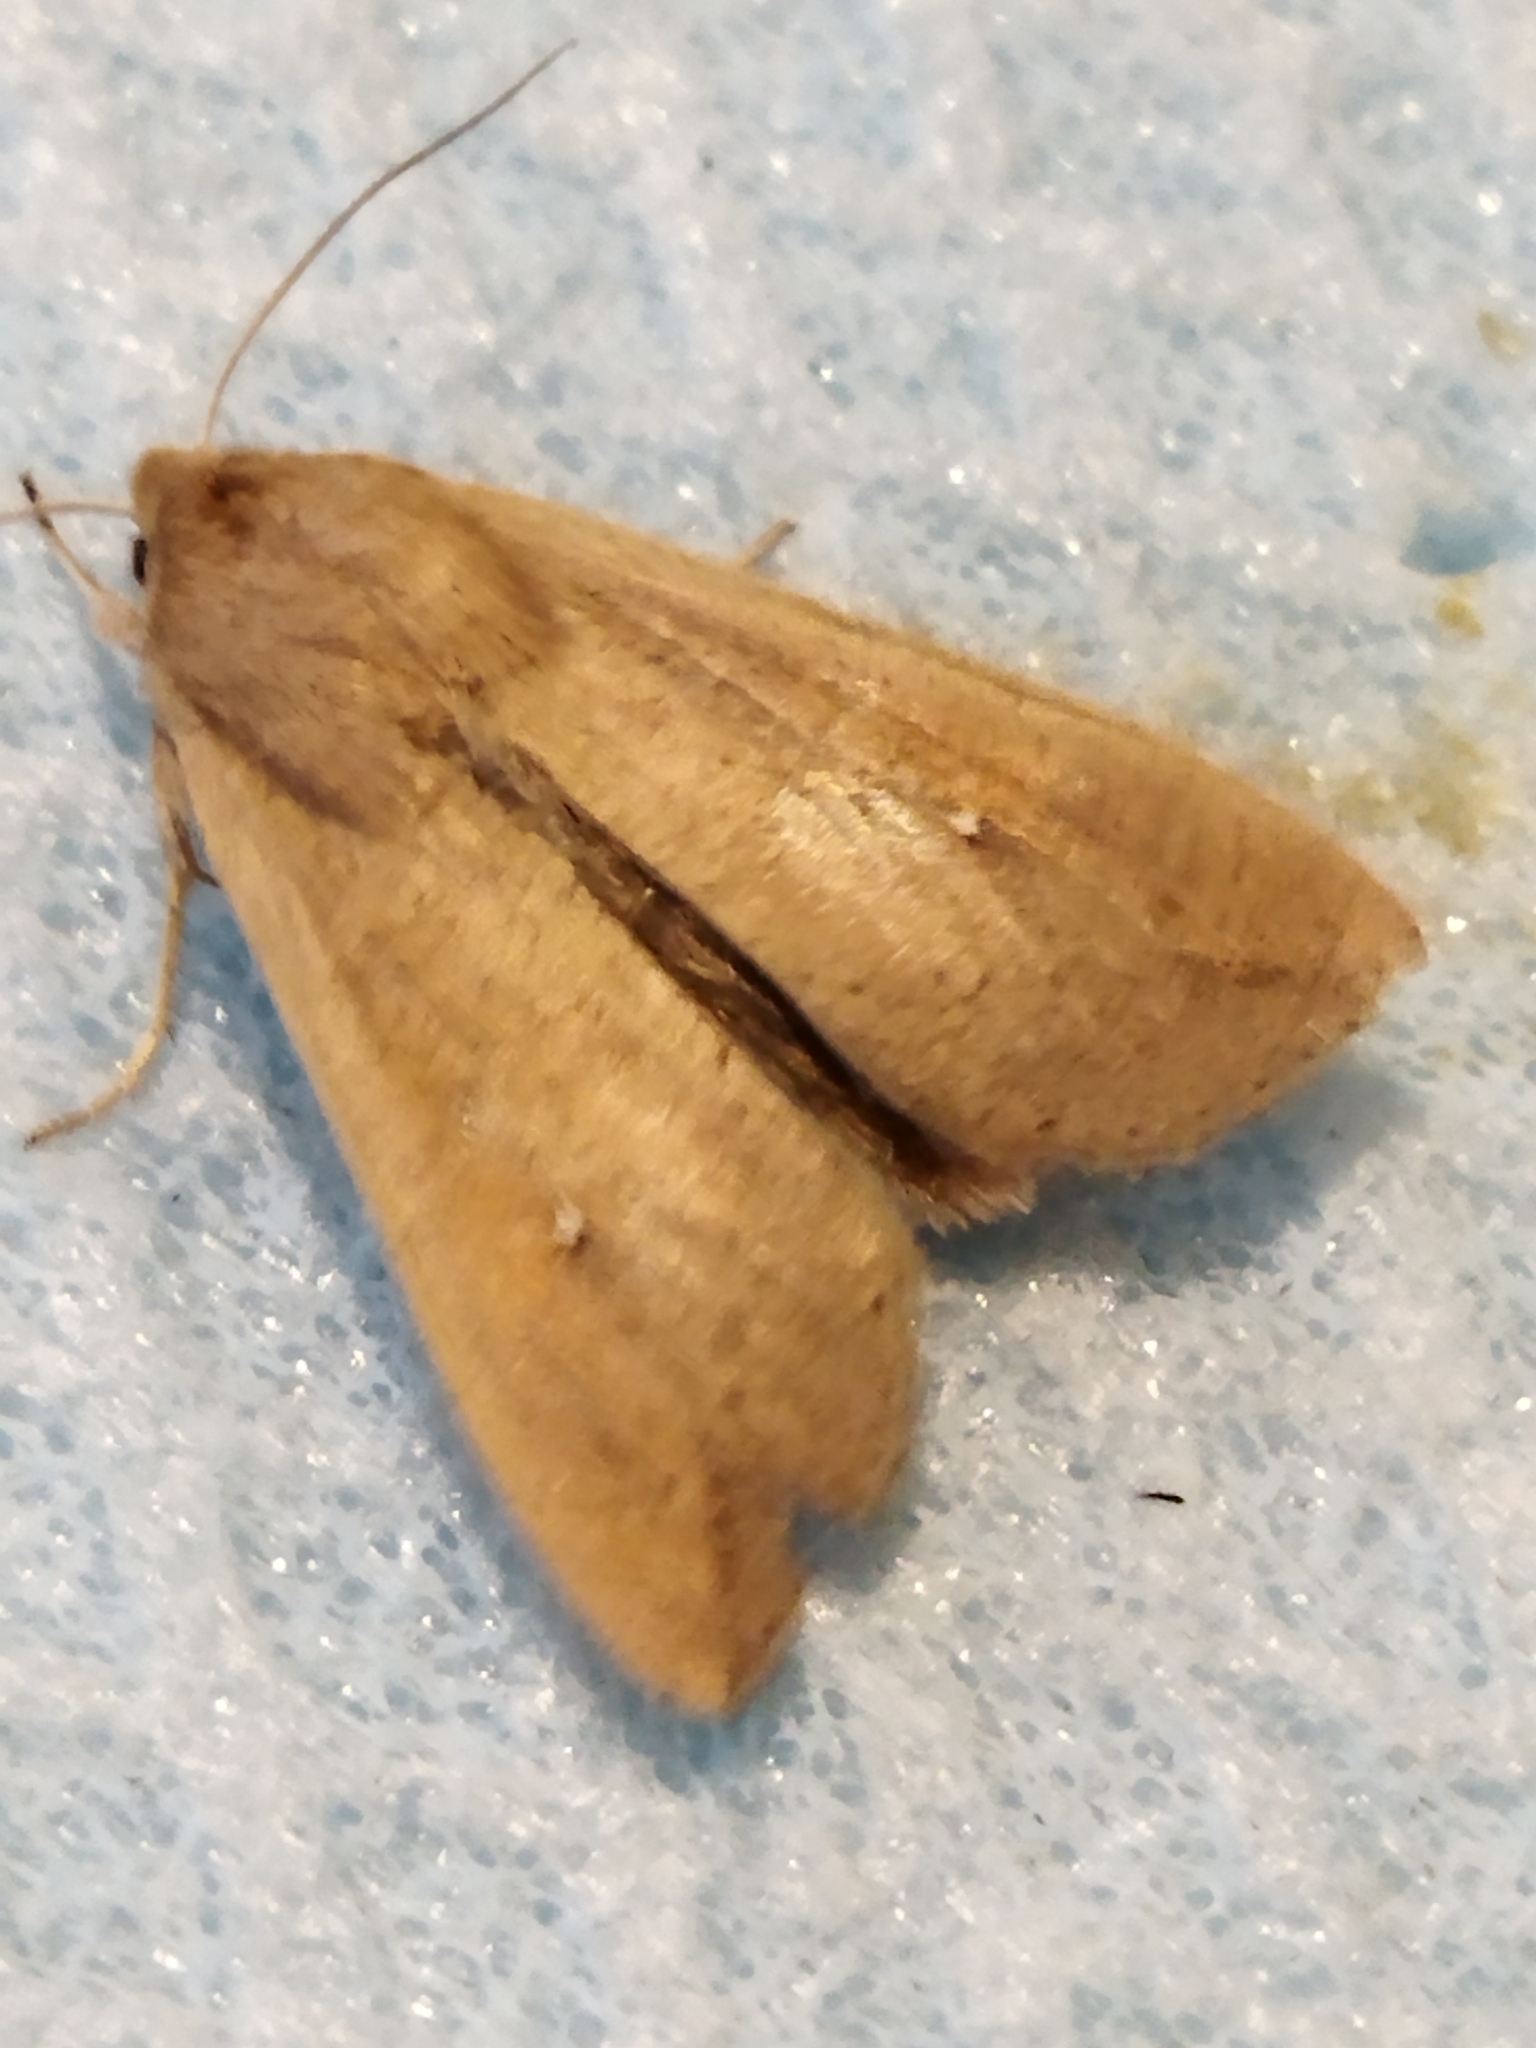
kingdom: Animalia
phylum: Arthropoda
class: Insecta
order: Lepidoptera
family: Noctuidae
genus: Mythimna
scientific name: Mythimna unipuncta
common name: White-speck
